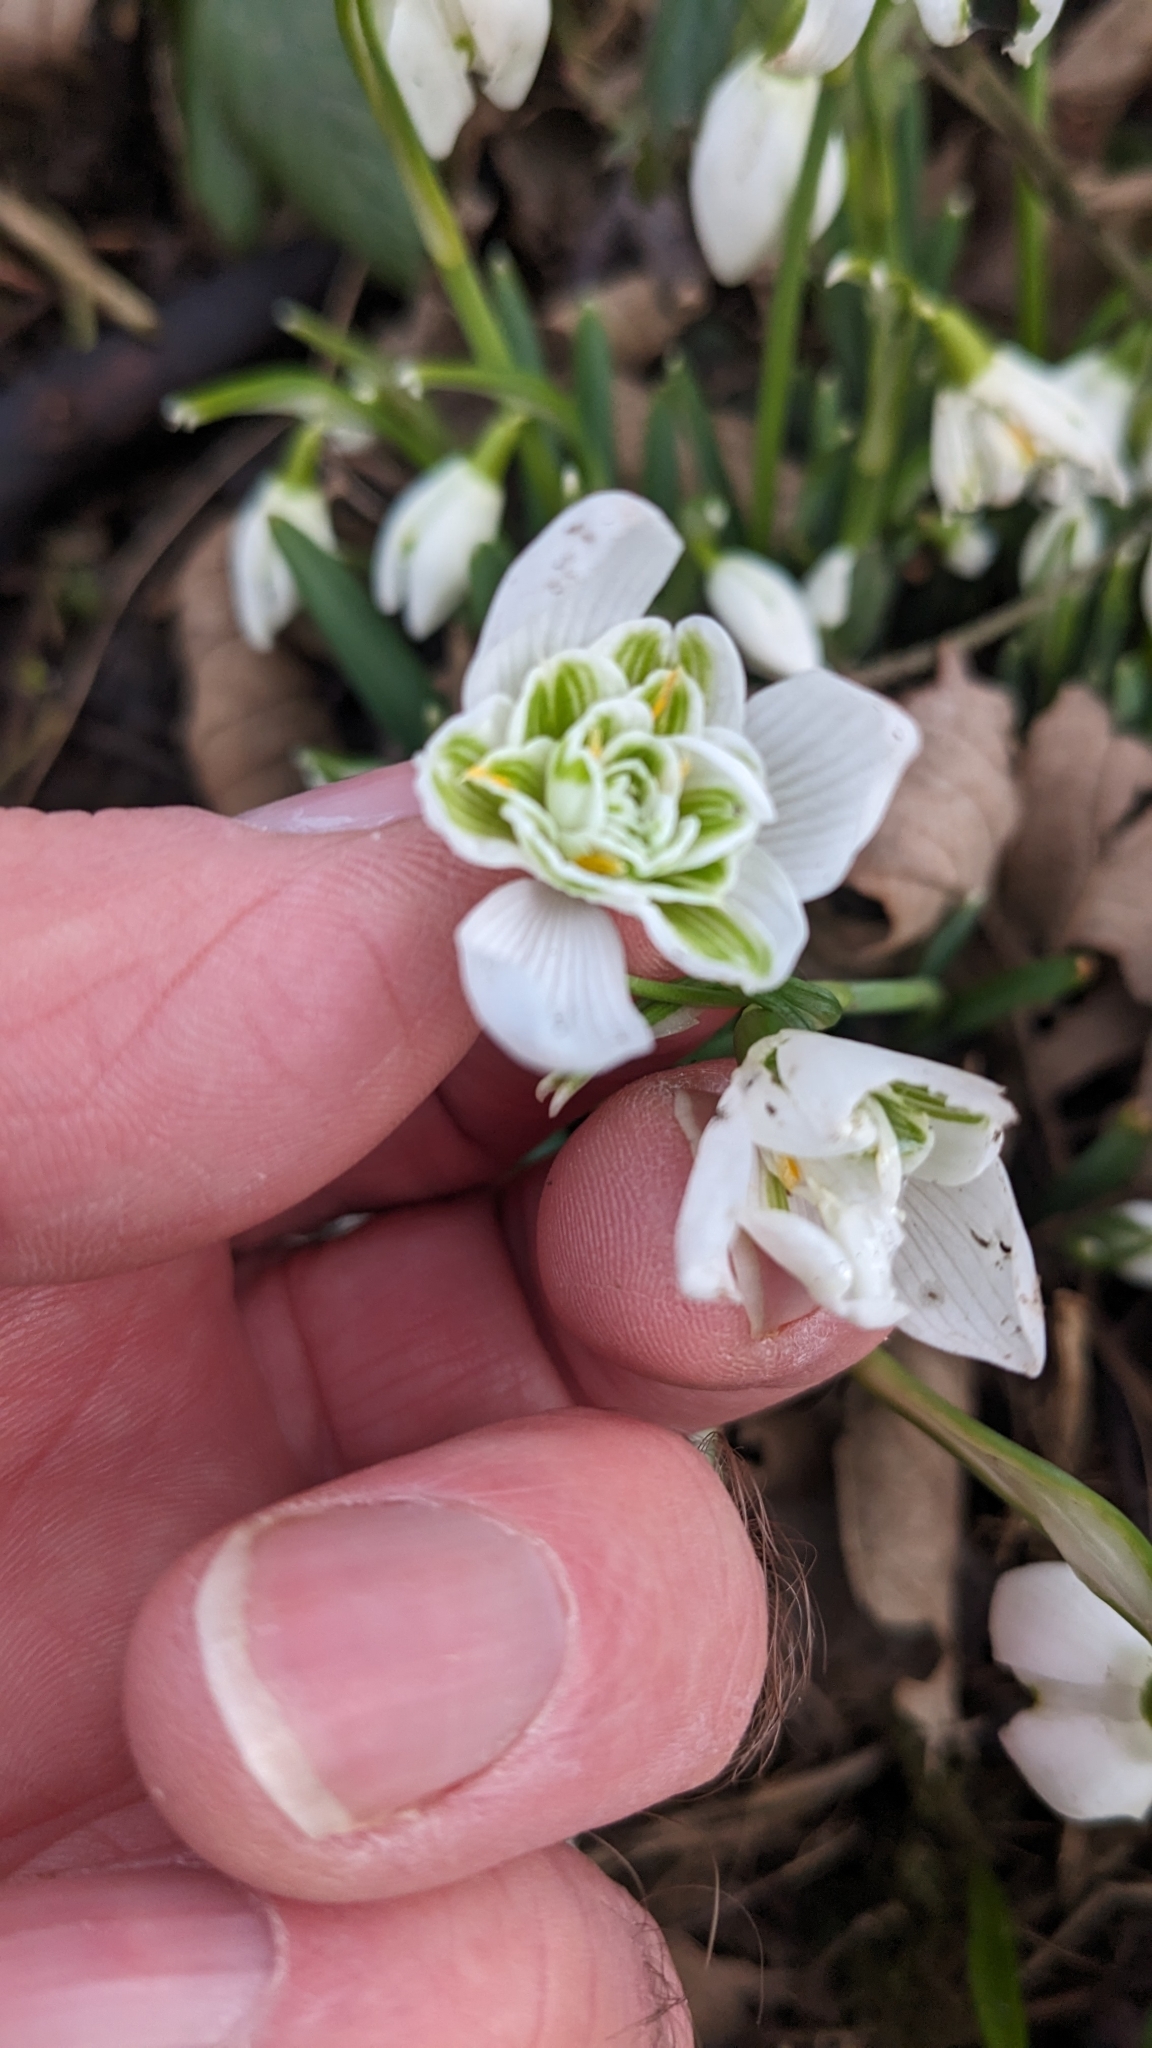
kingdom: Plantae
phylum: Tracheophyta
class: Liliopsida
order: Asparagales
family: Amaryllidaceae
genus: Galanthus
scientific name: Galanthus nivalis
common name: Snowdrop
